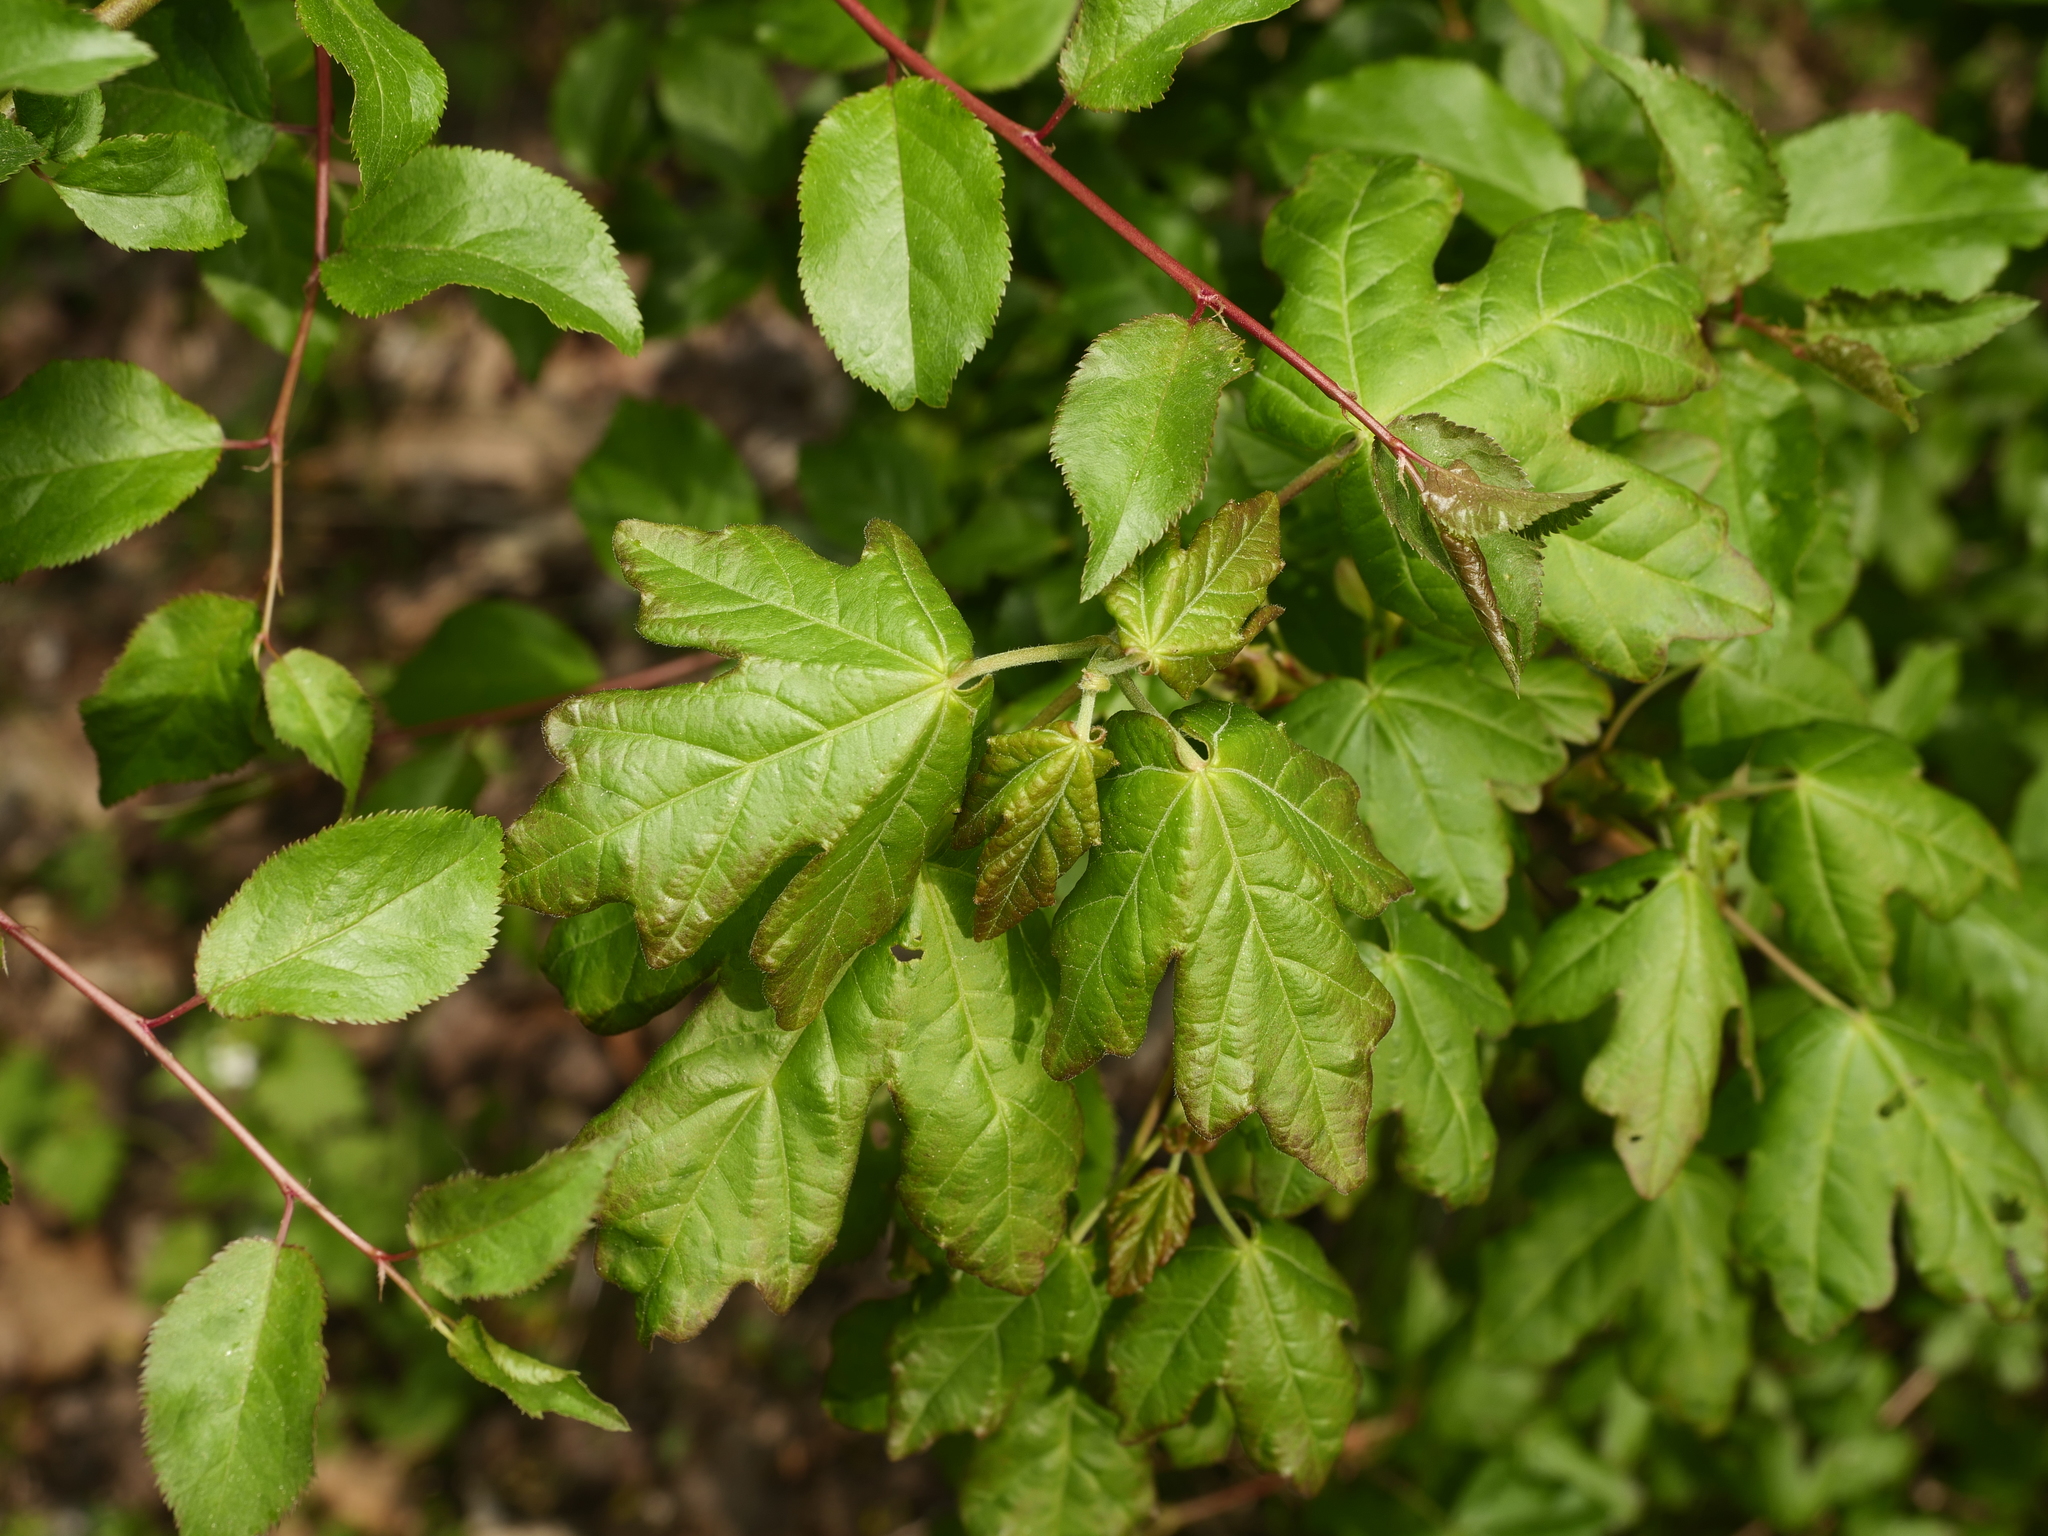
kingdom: Plantae
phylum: Tracheophyta
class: Magnoliopsida
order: Sapindales
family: Sapindaceae
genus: Acer
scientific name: Acer campestre
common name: Field maple
